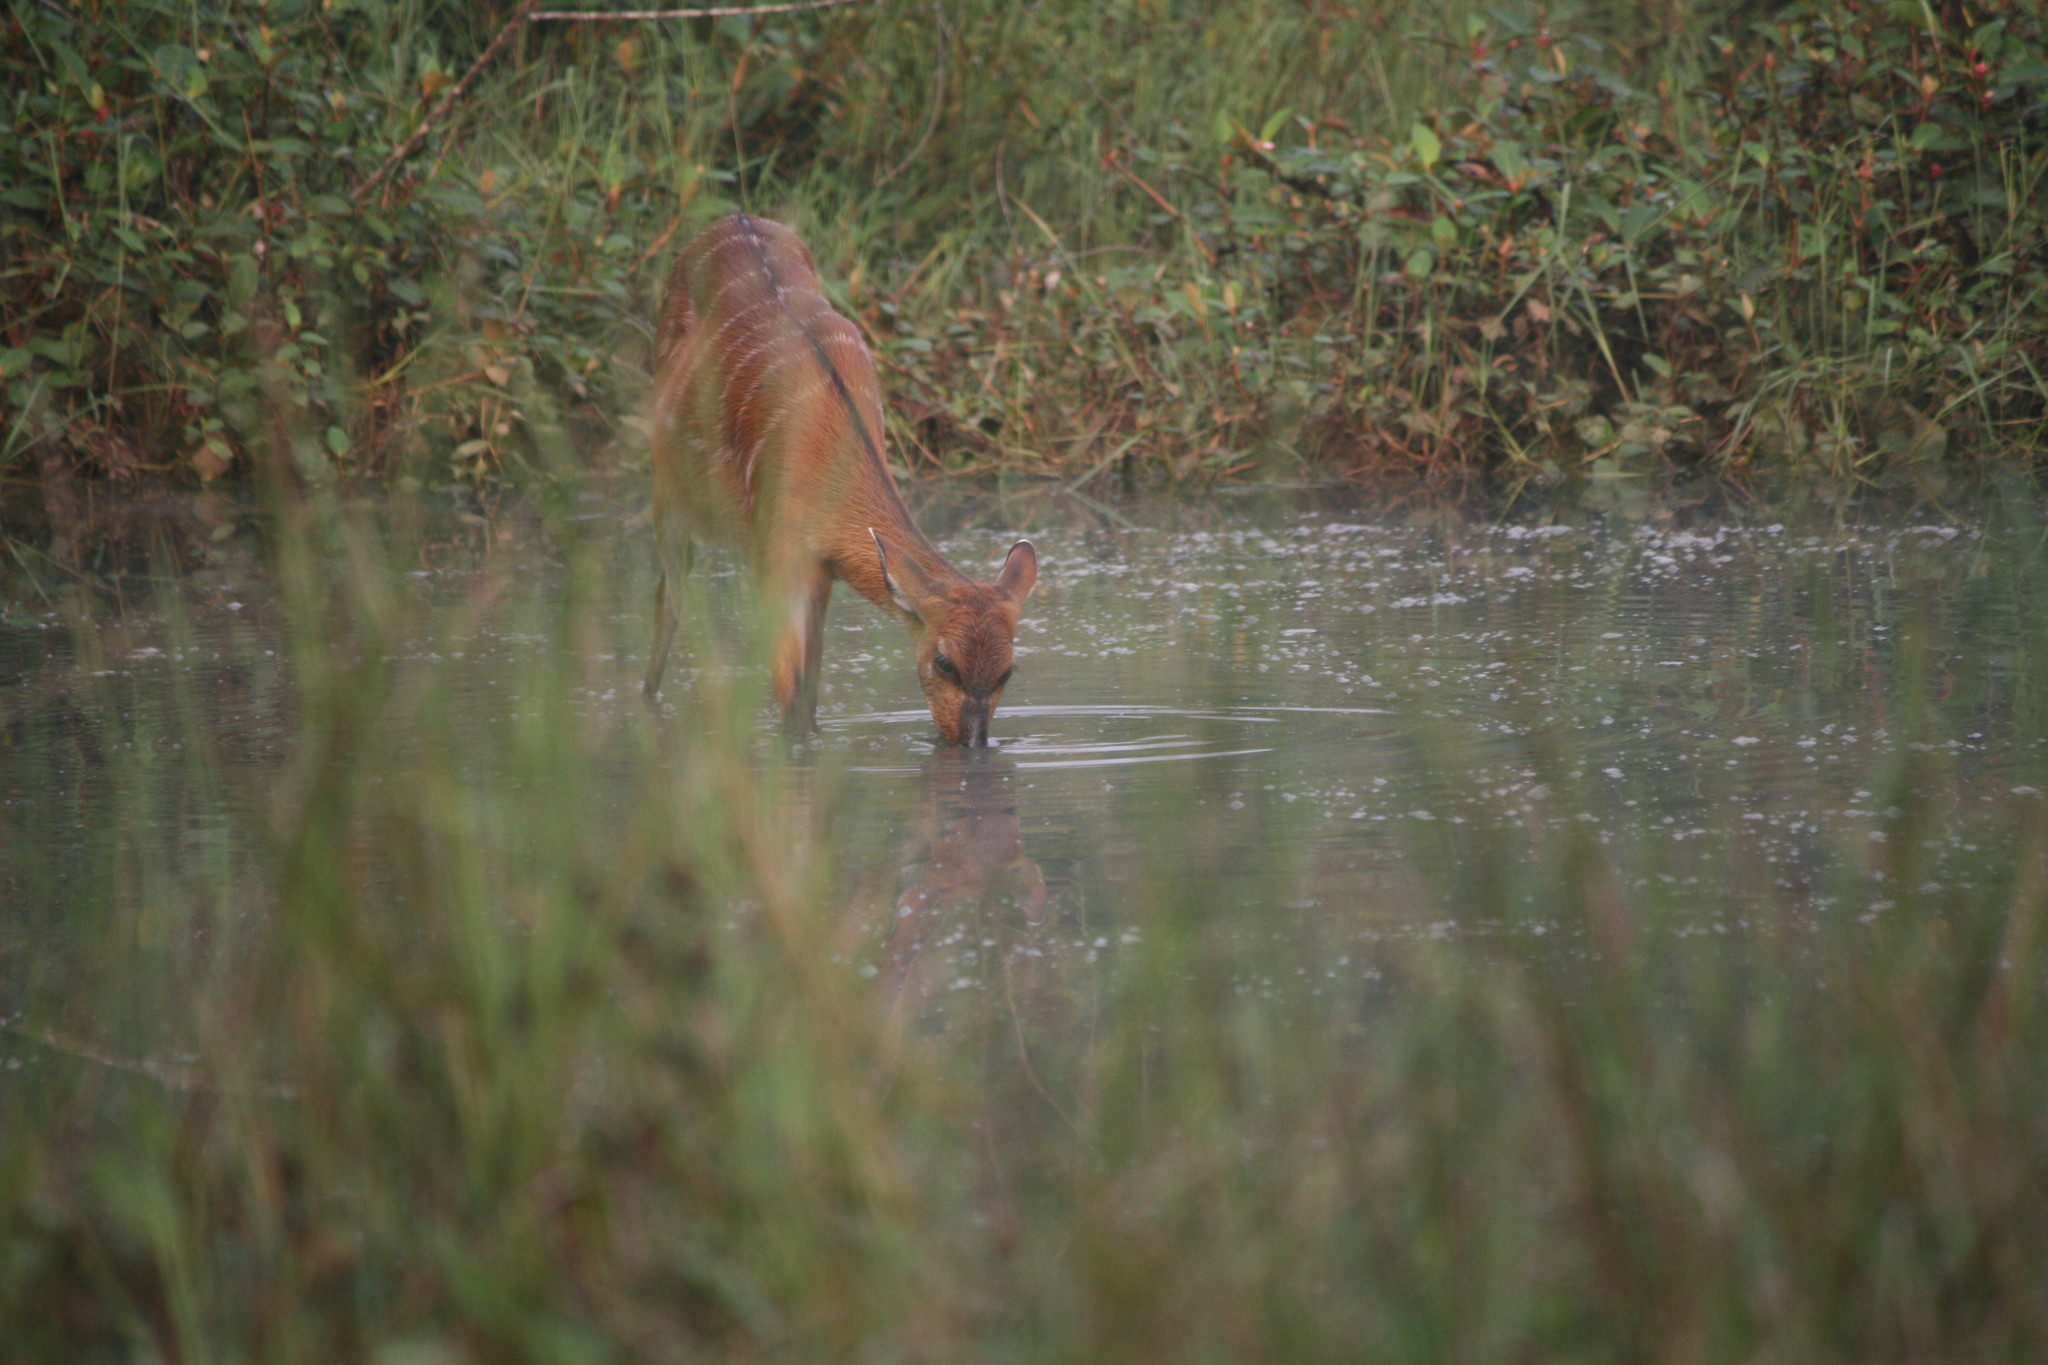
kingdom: Animalia
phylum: Chordata
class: Mammalia
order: Artiodactyla
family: Bovidae
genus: Tragelaphus
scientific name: Tragelaphus spekii
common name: Sitatunga
